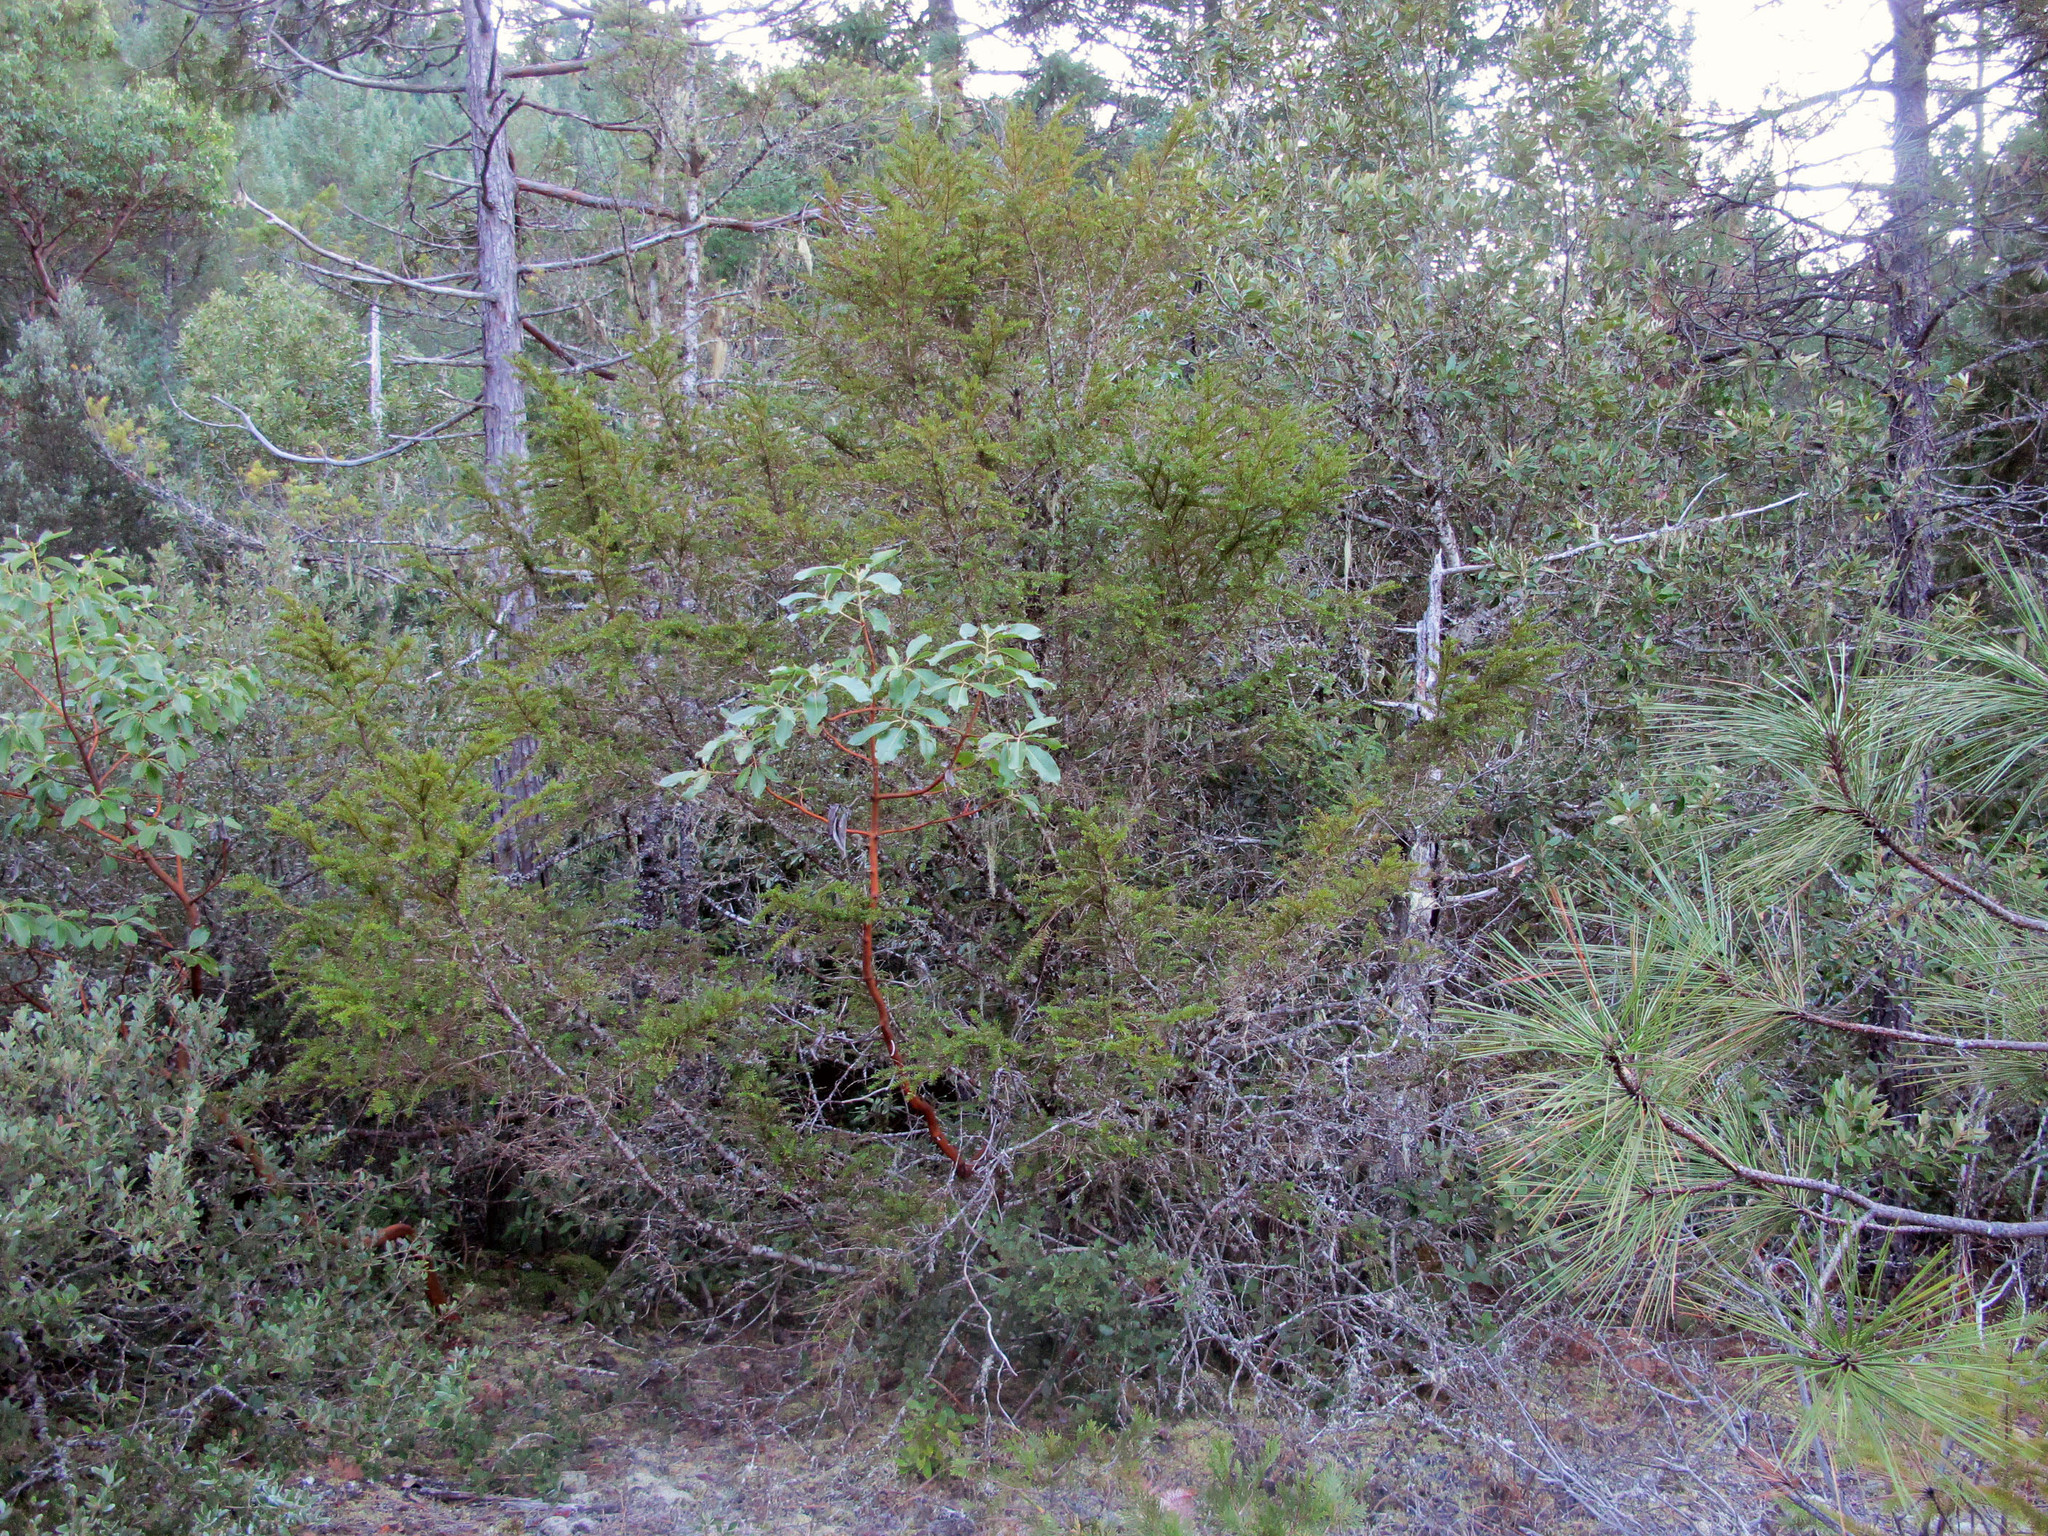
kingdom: Plantae
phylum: Tracheophyta
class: Pinopsida
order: Pinales
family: Taxaceae
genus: Taxus
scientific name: Taxus brevifolia
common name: Pacific yew
